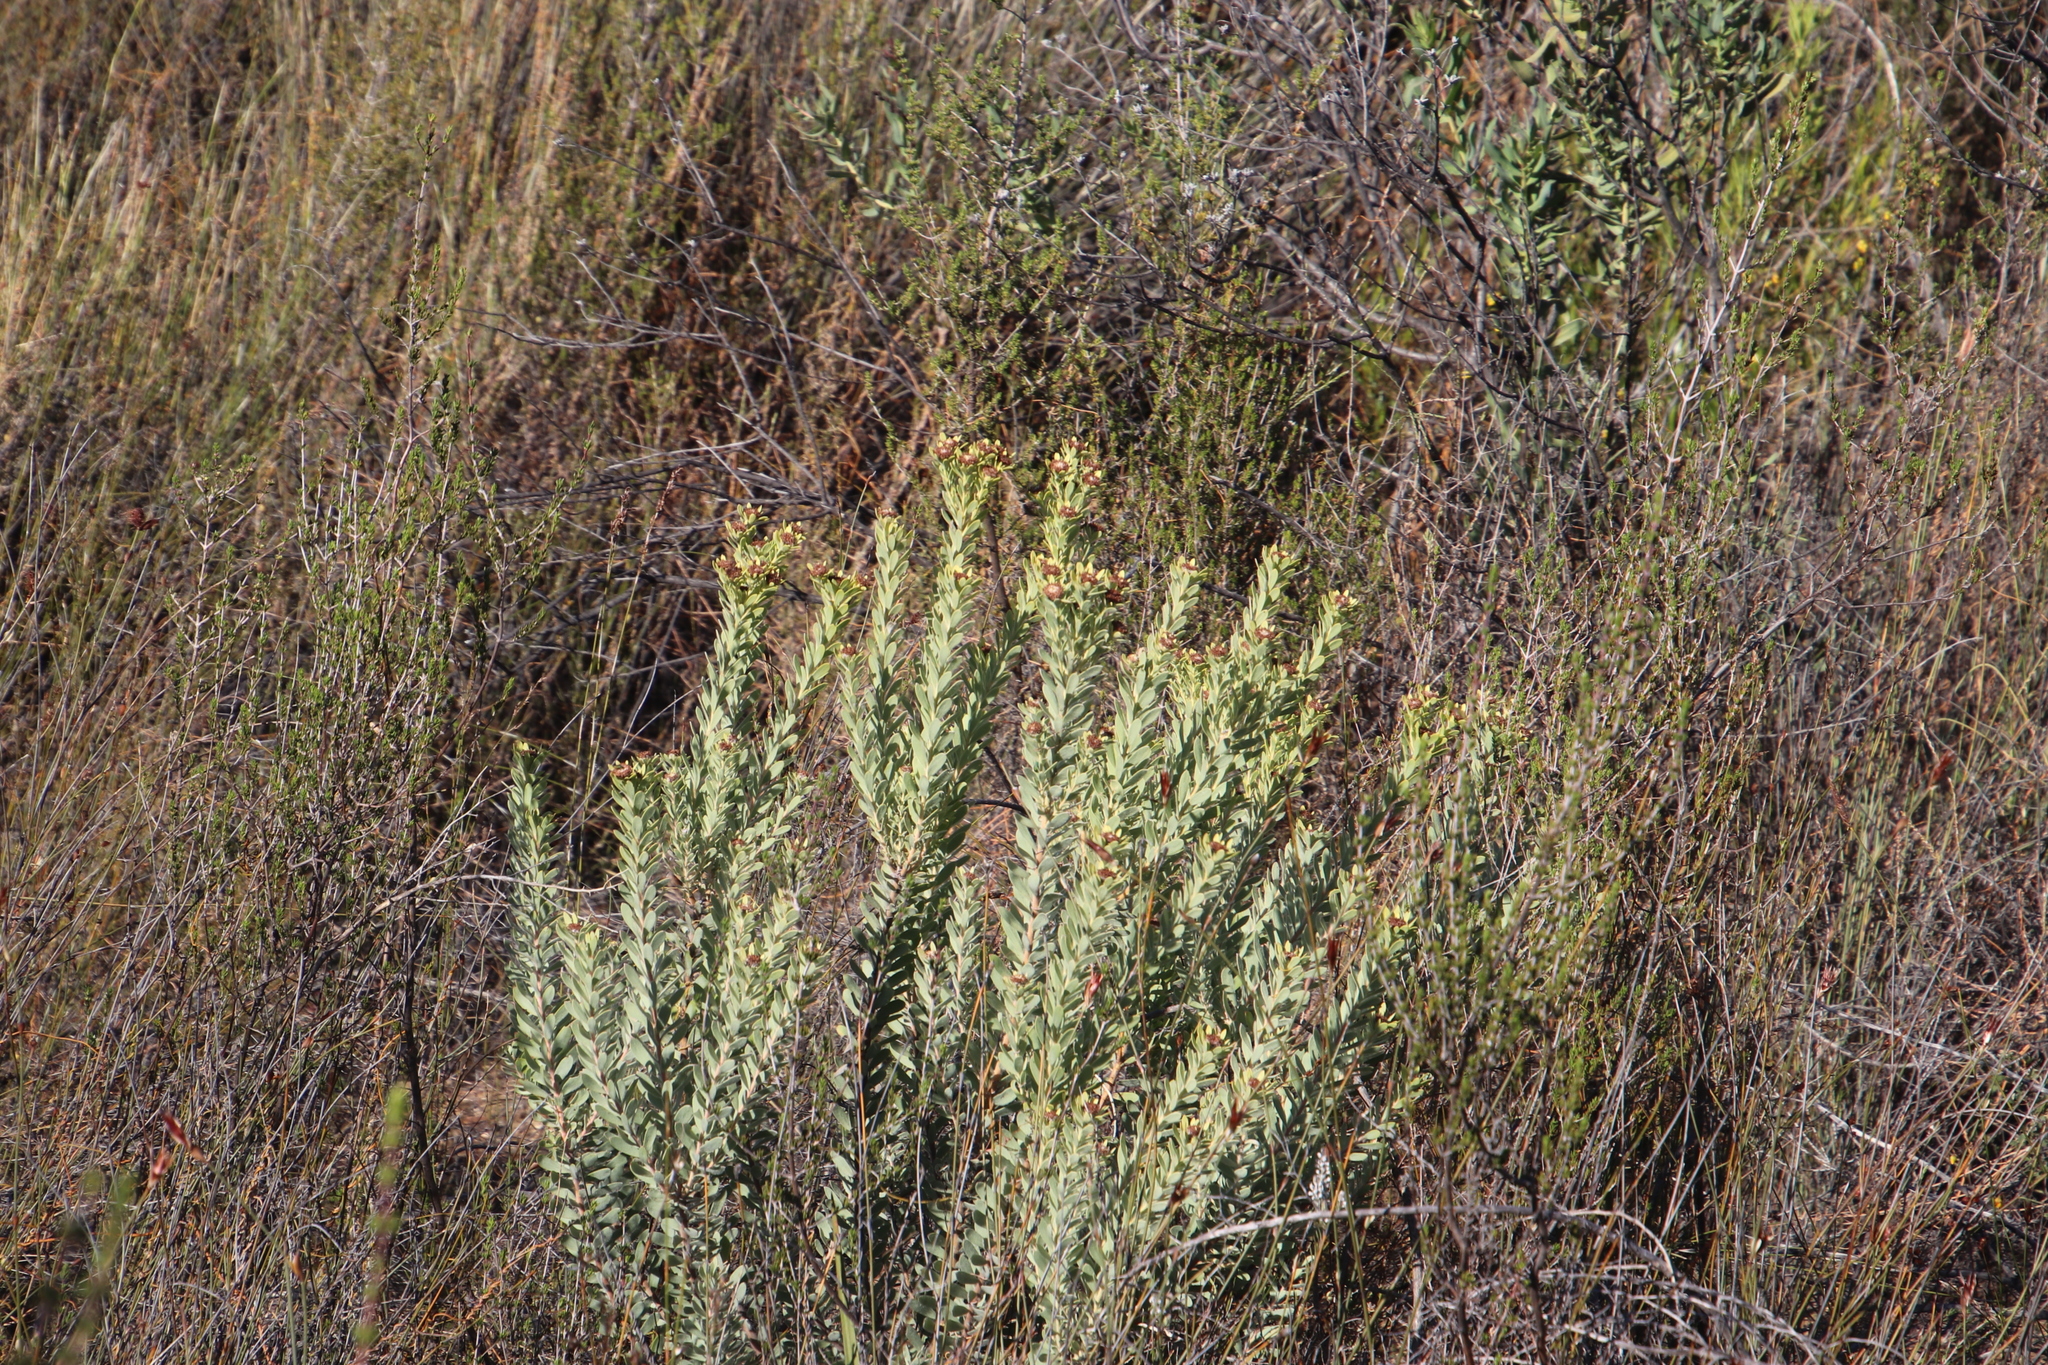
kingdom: Plantae
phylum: Tracheophyta
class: Magnoliopsida
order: Proteales
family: Proteaceae
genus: Leucadendron
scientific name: Leucadendron pubescens
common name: Grey conebush
